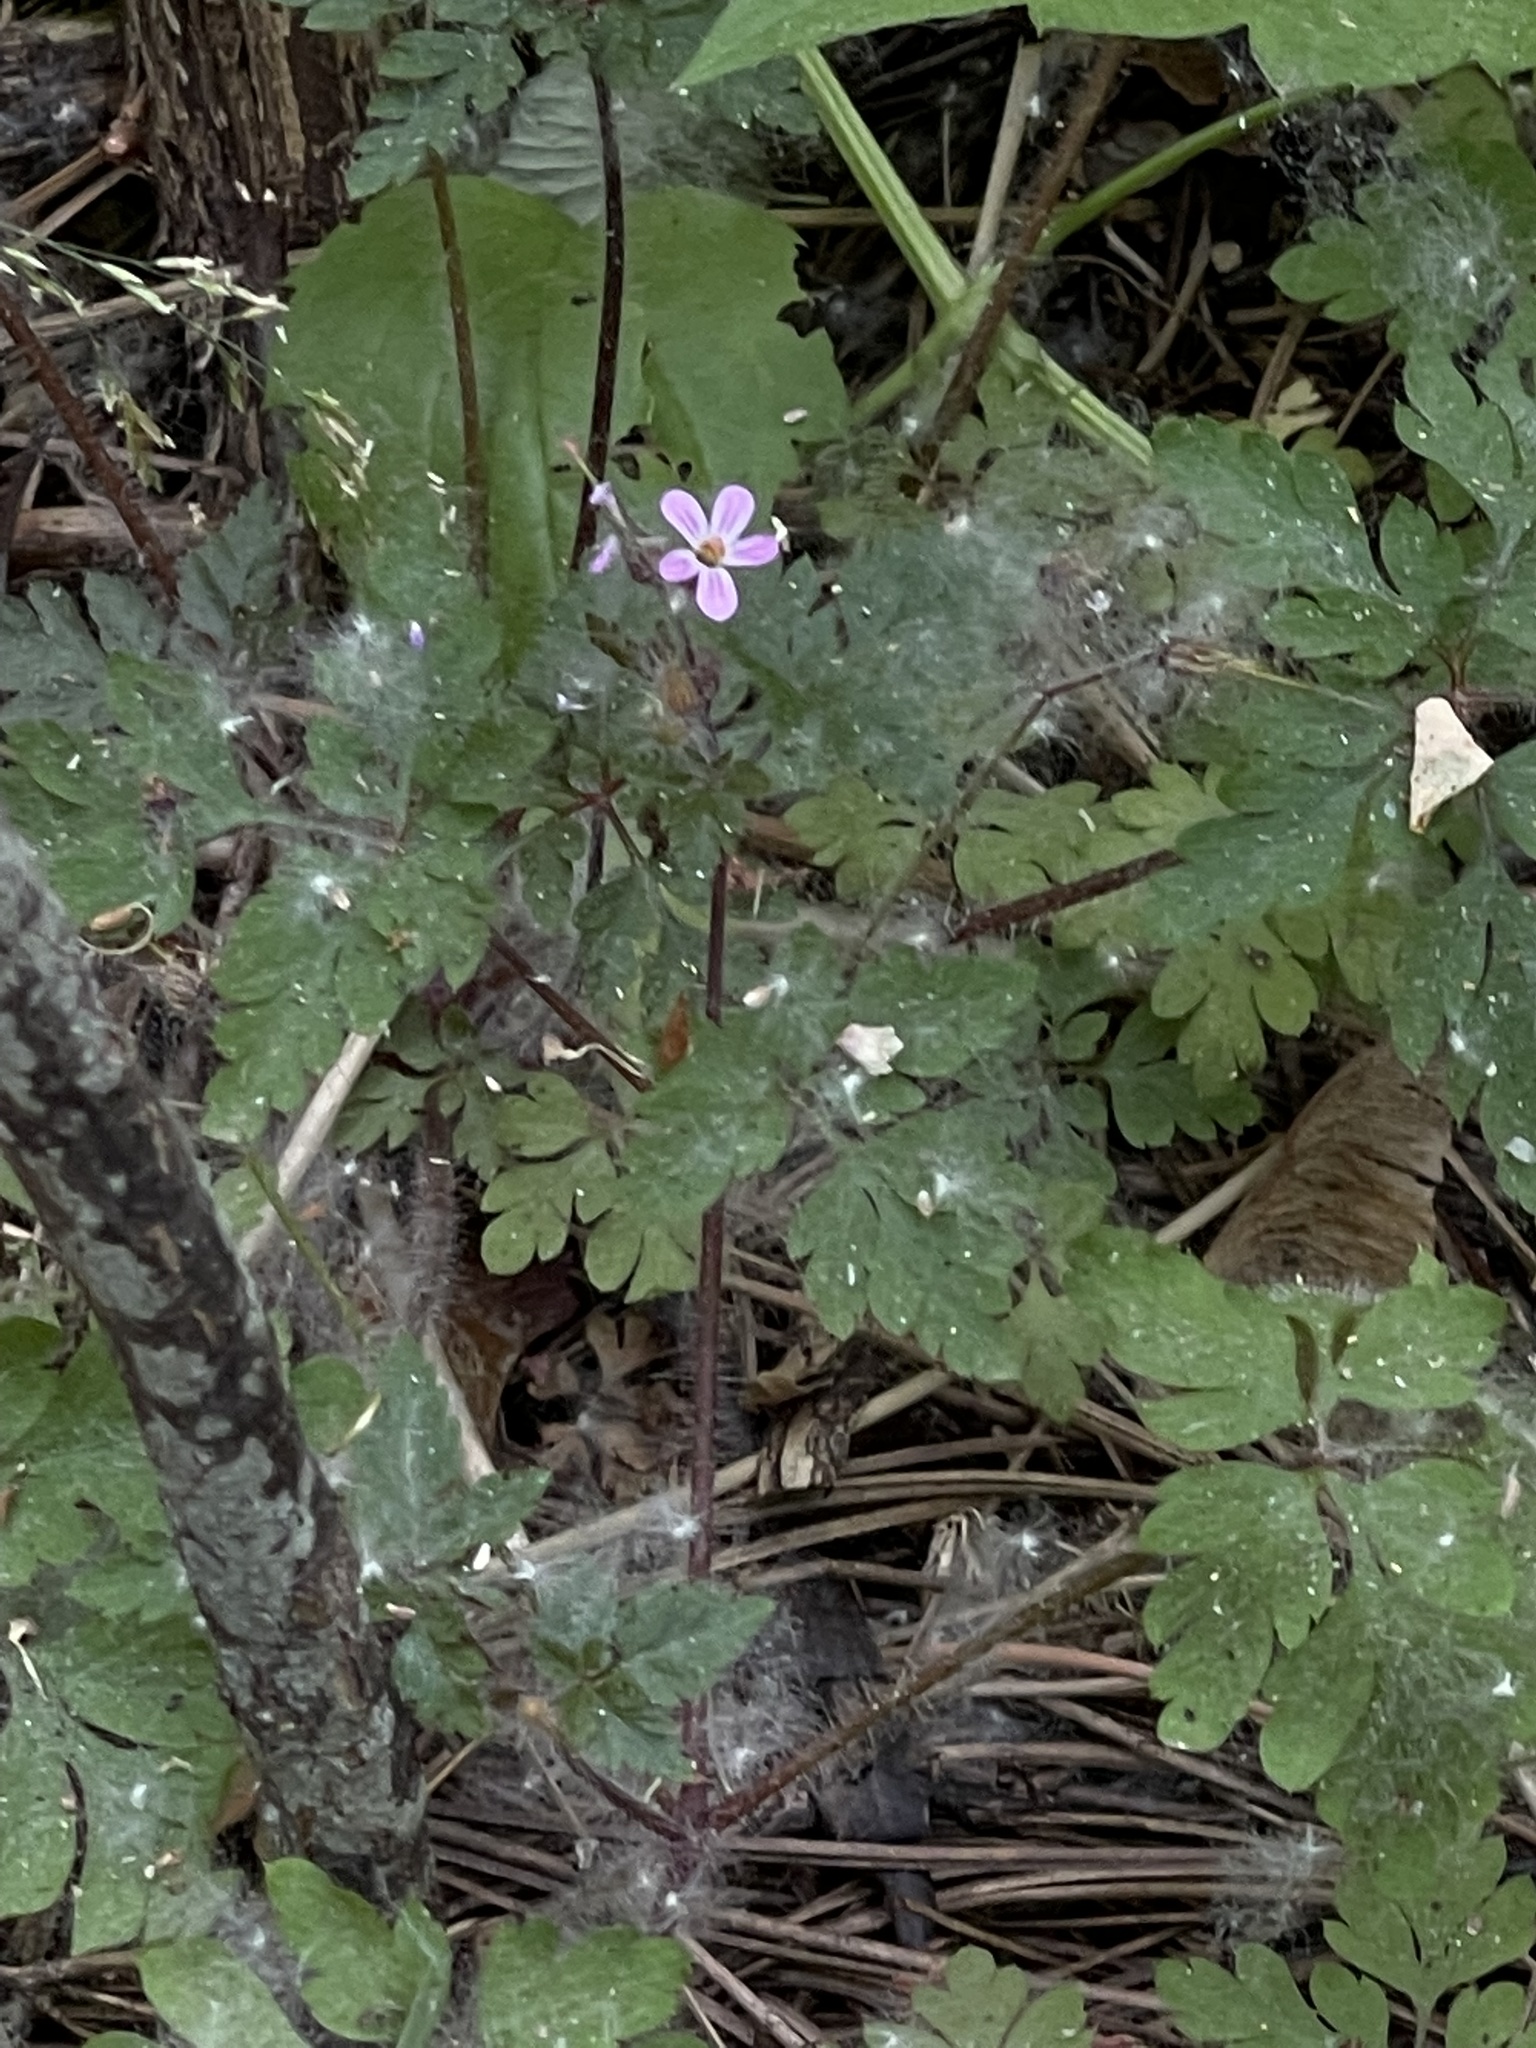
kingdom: Plantae
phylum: Tracheophyta
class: Magnoliopsida
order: Geraniales
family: Geraniaceae
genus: Geranium
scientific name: Geranium robertianum
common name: Herb-robert
